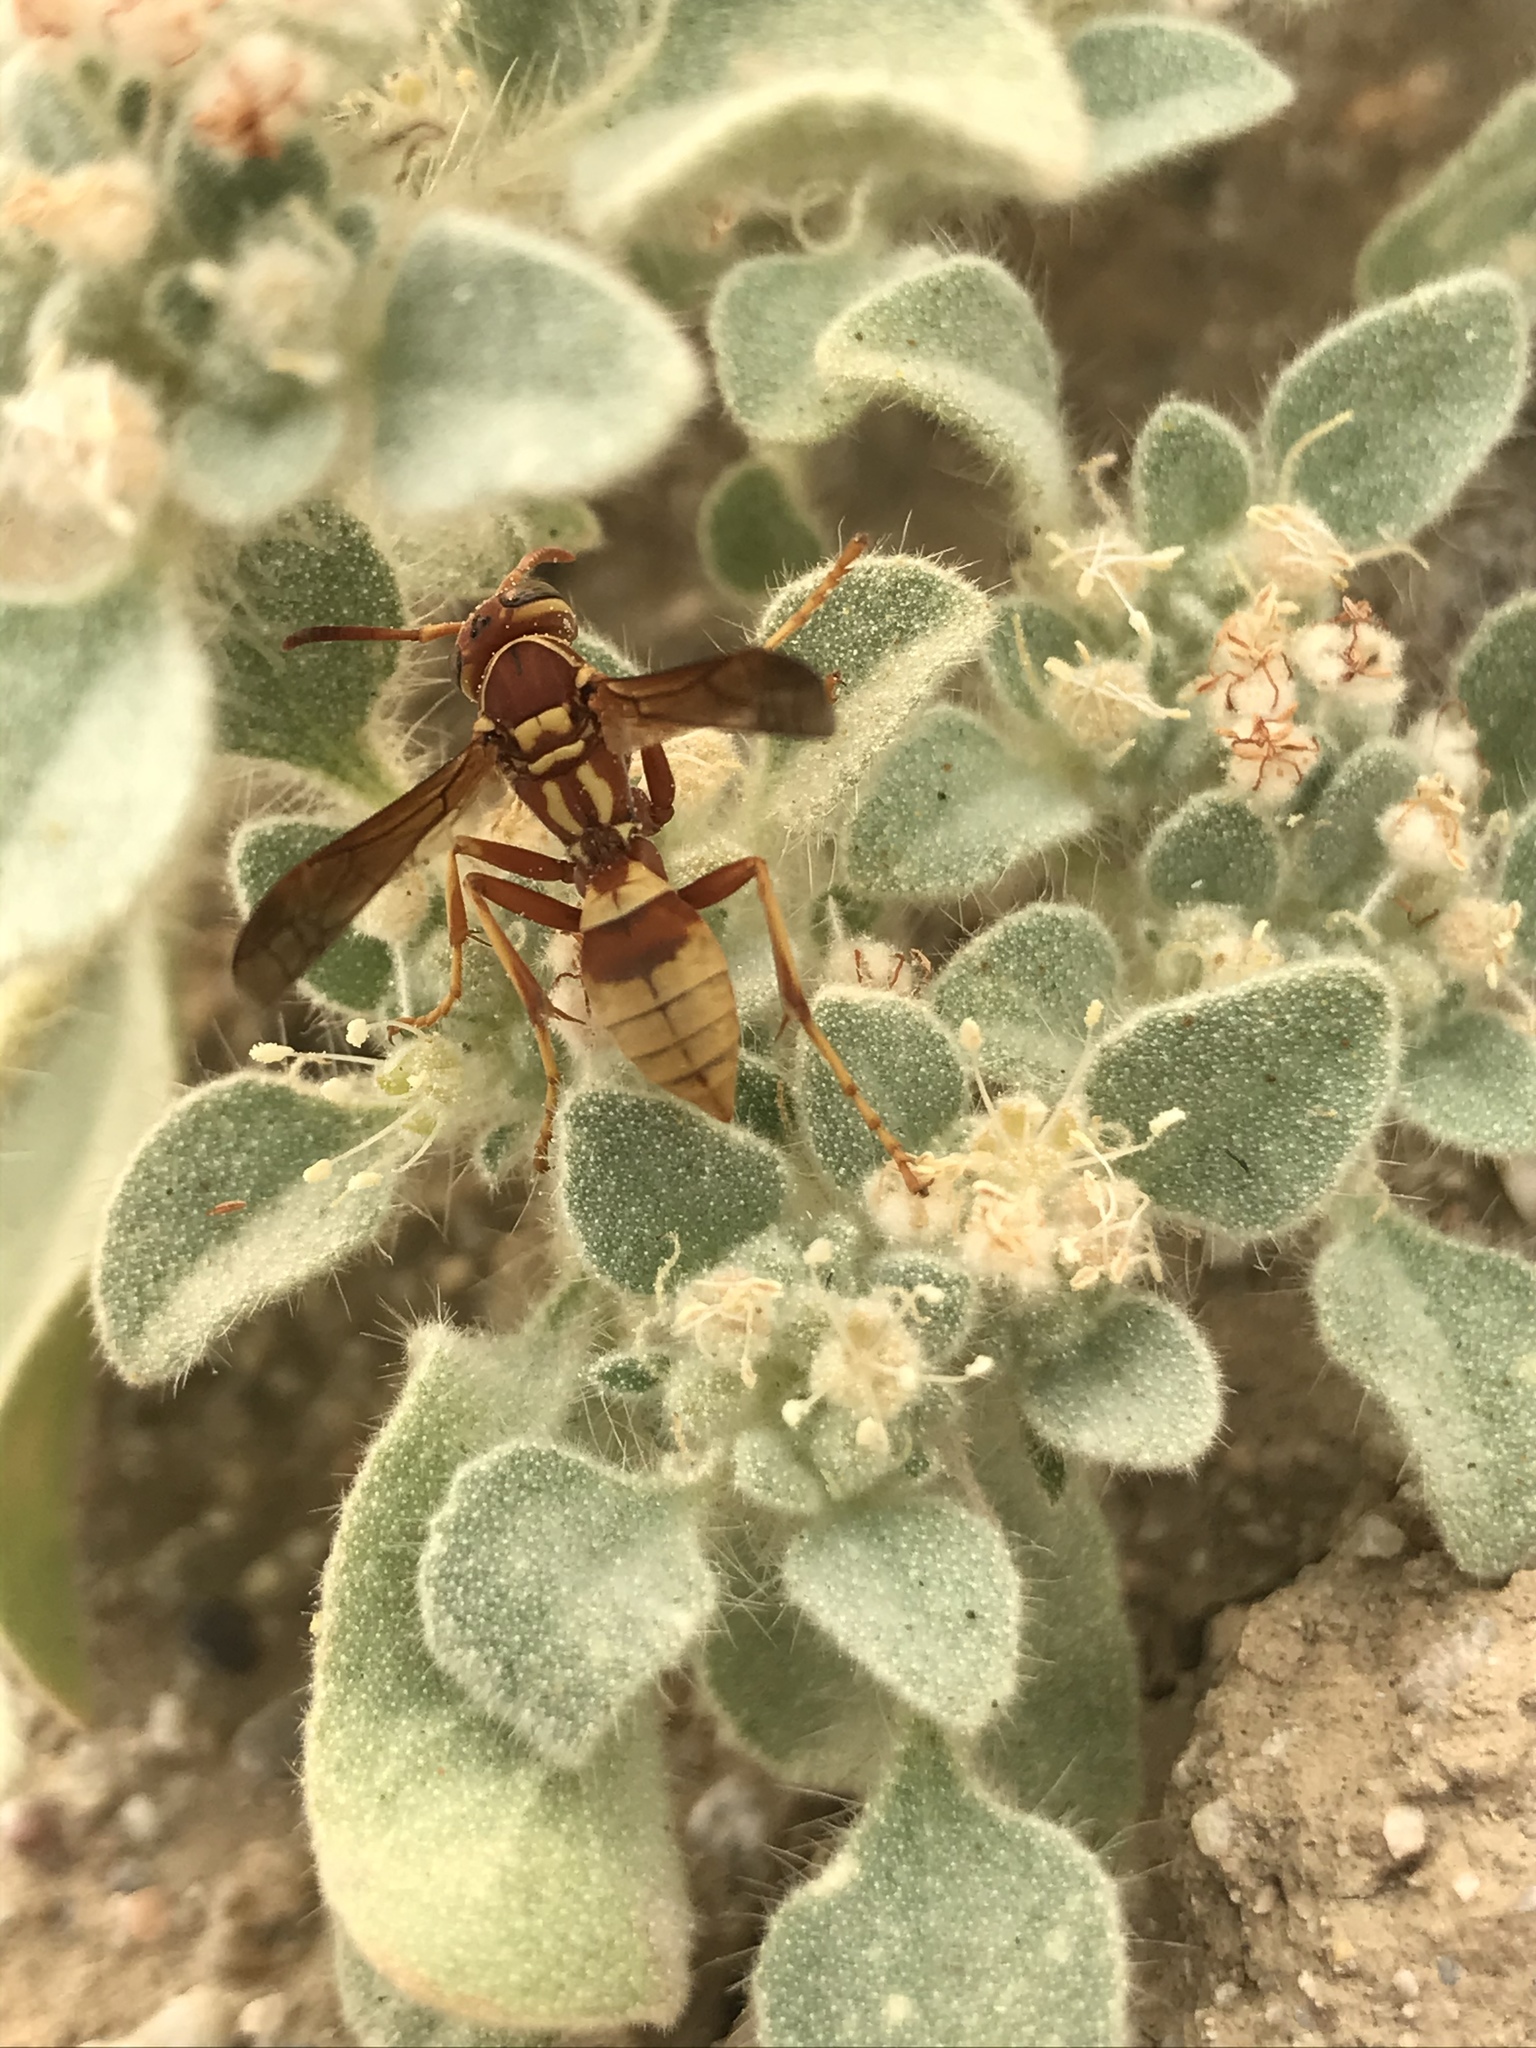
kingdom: Animalia
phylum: Arthropoda
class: Insecta
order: Hymenoptera
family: Eumenidae
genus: Polistes
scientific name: Polistes dorsalis
